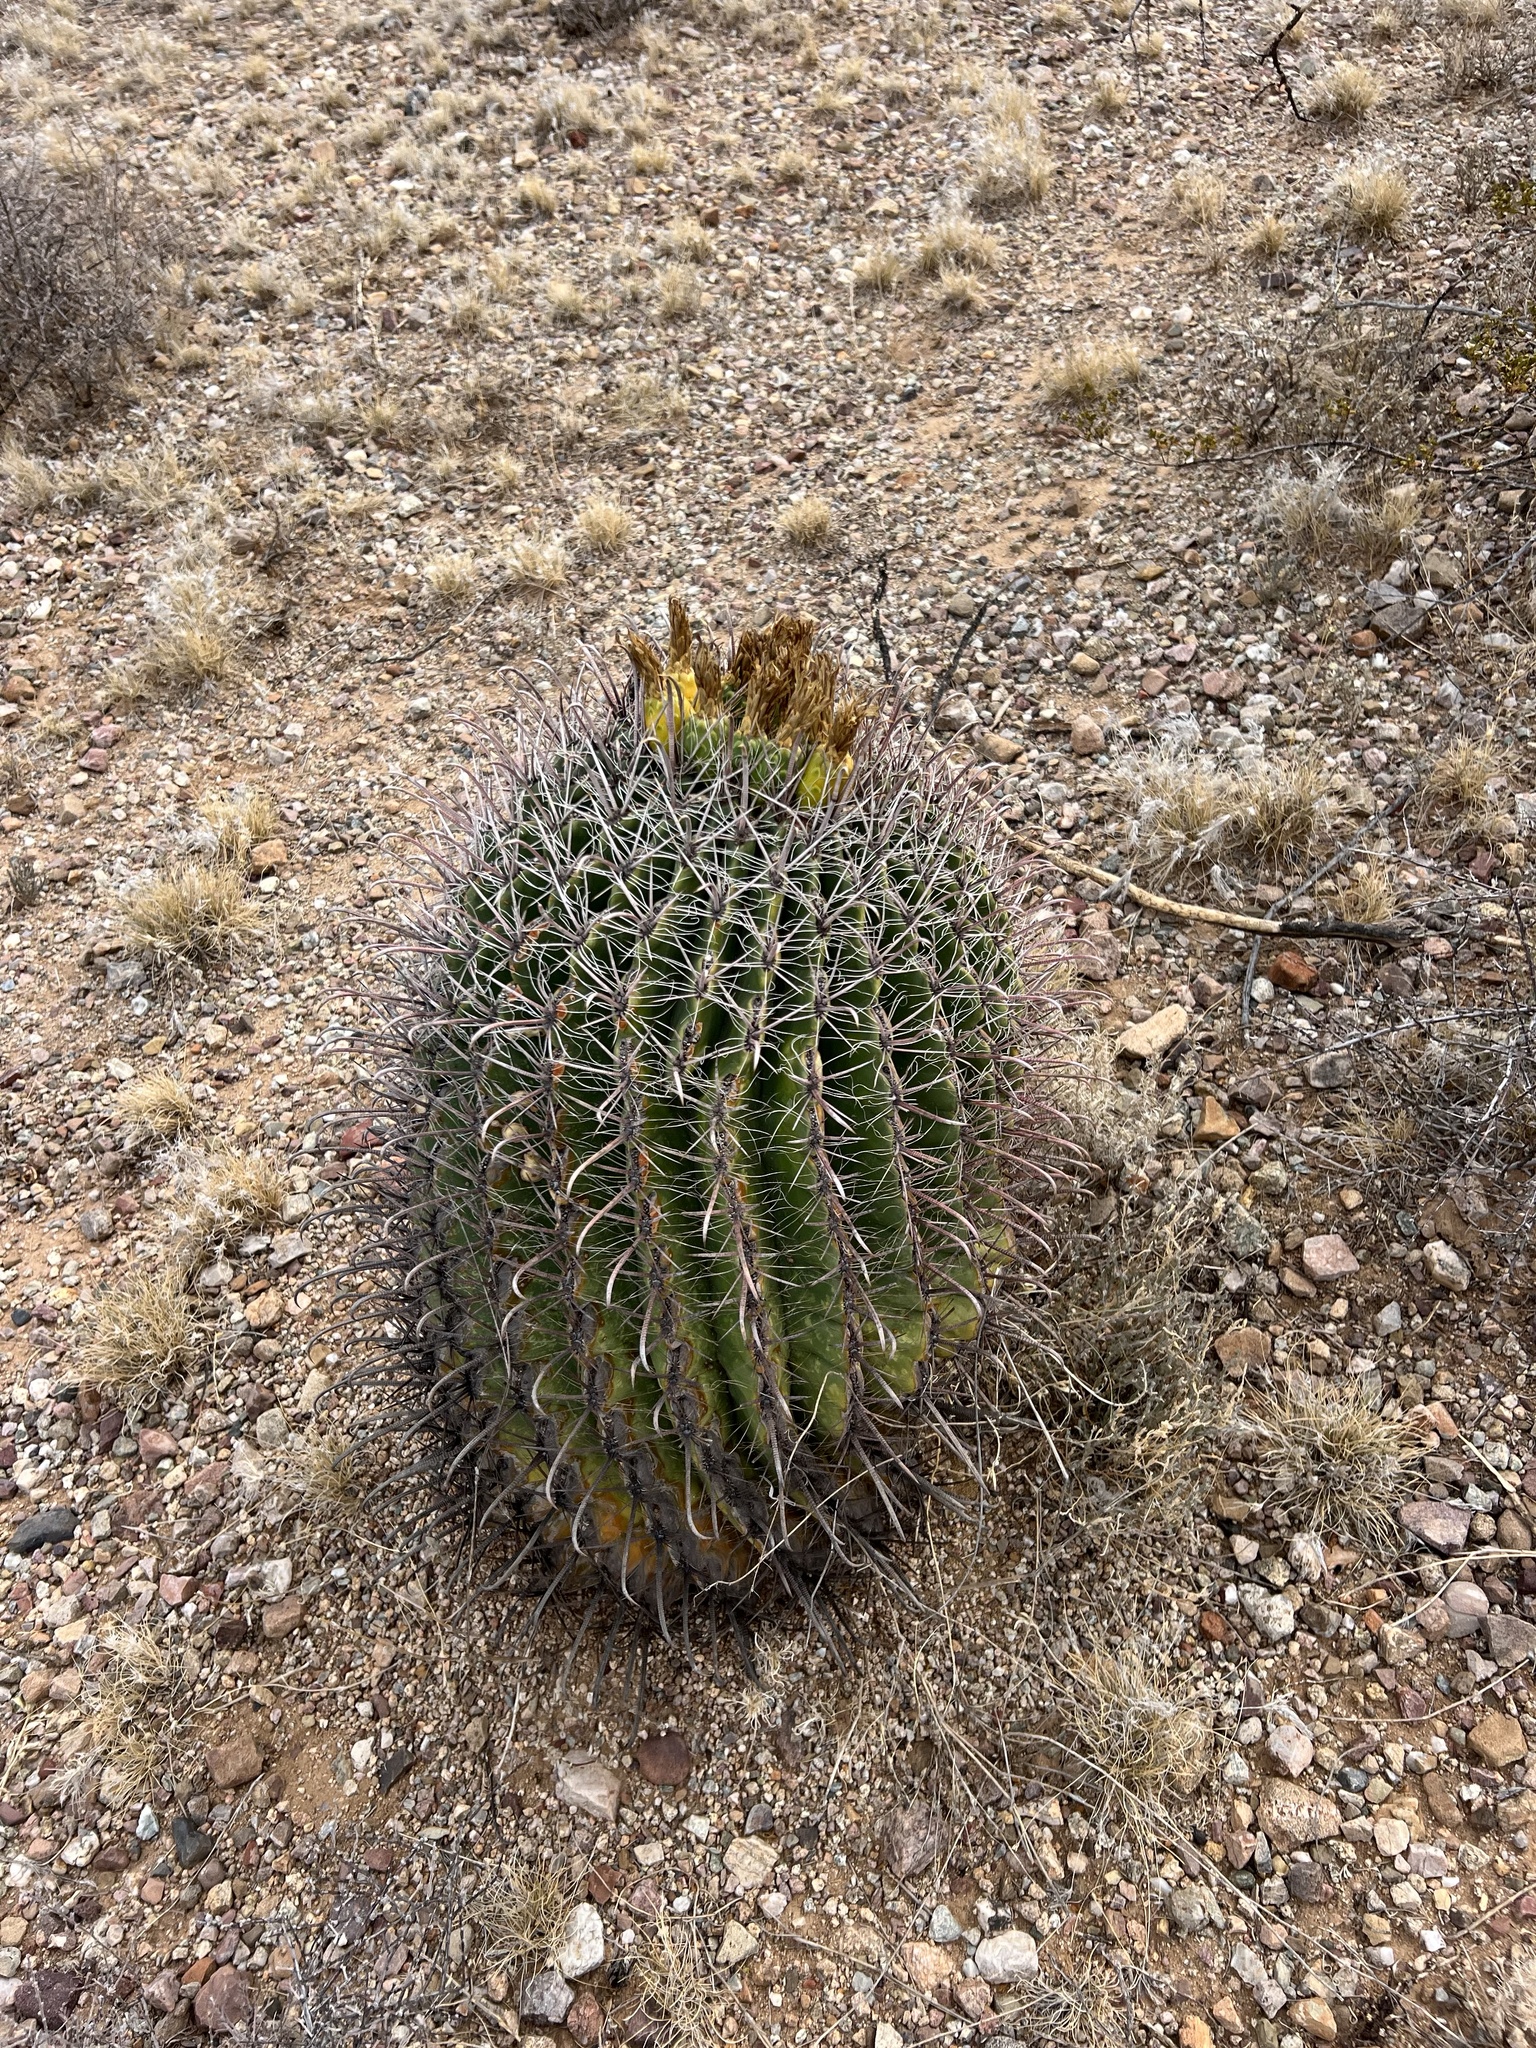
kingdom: Plantae
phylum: Tracheophyta
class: Magnoliopsida
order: Caryophyllales
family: Cactaceae
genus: Ferocactus
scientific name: Ferocactus wislizeni
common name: Candy barrel cactus
